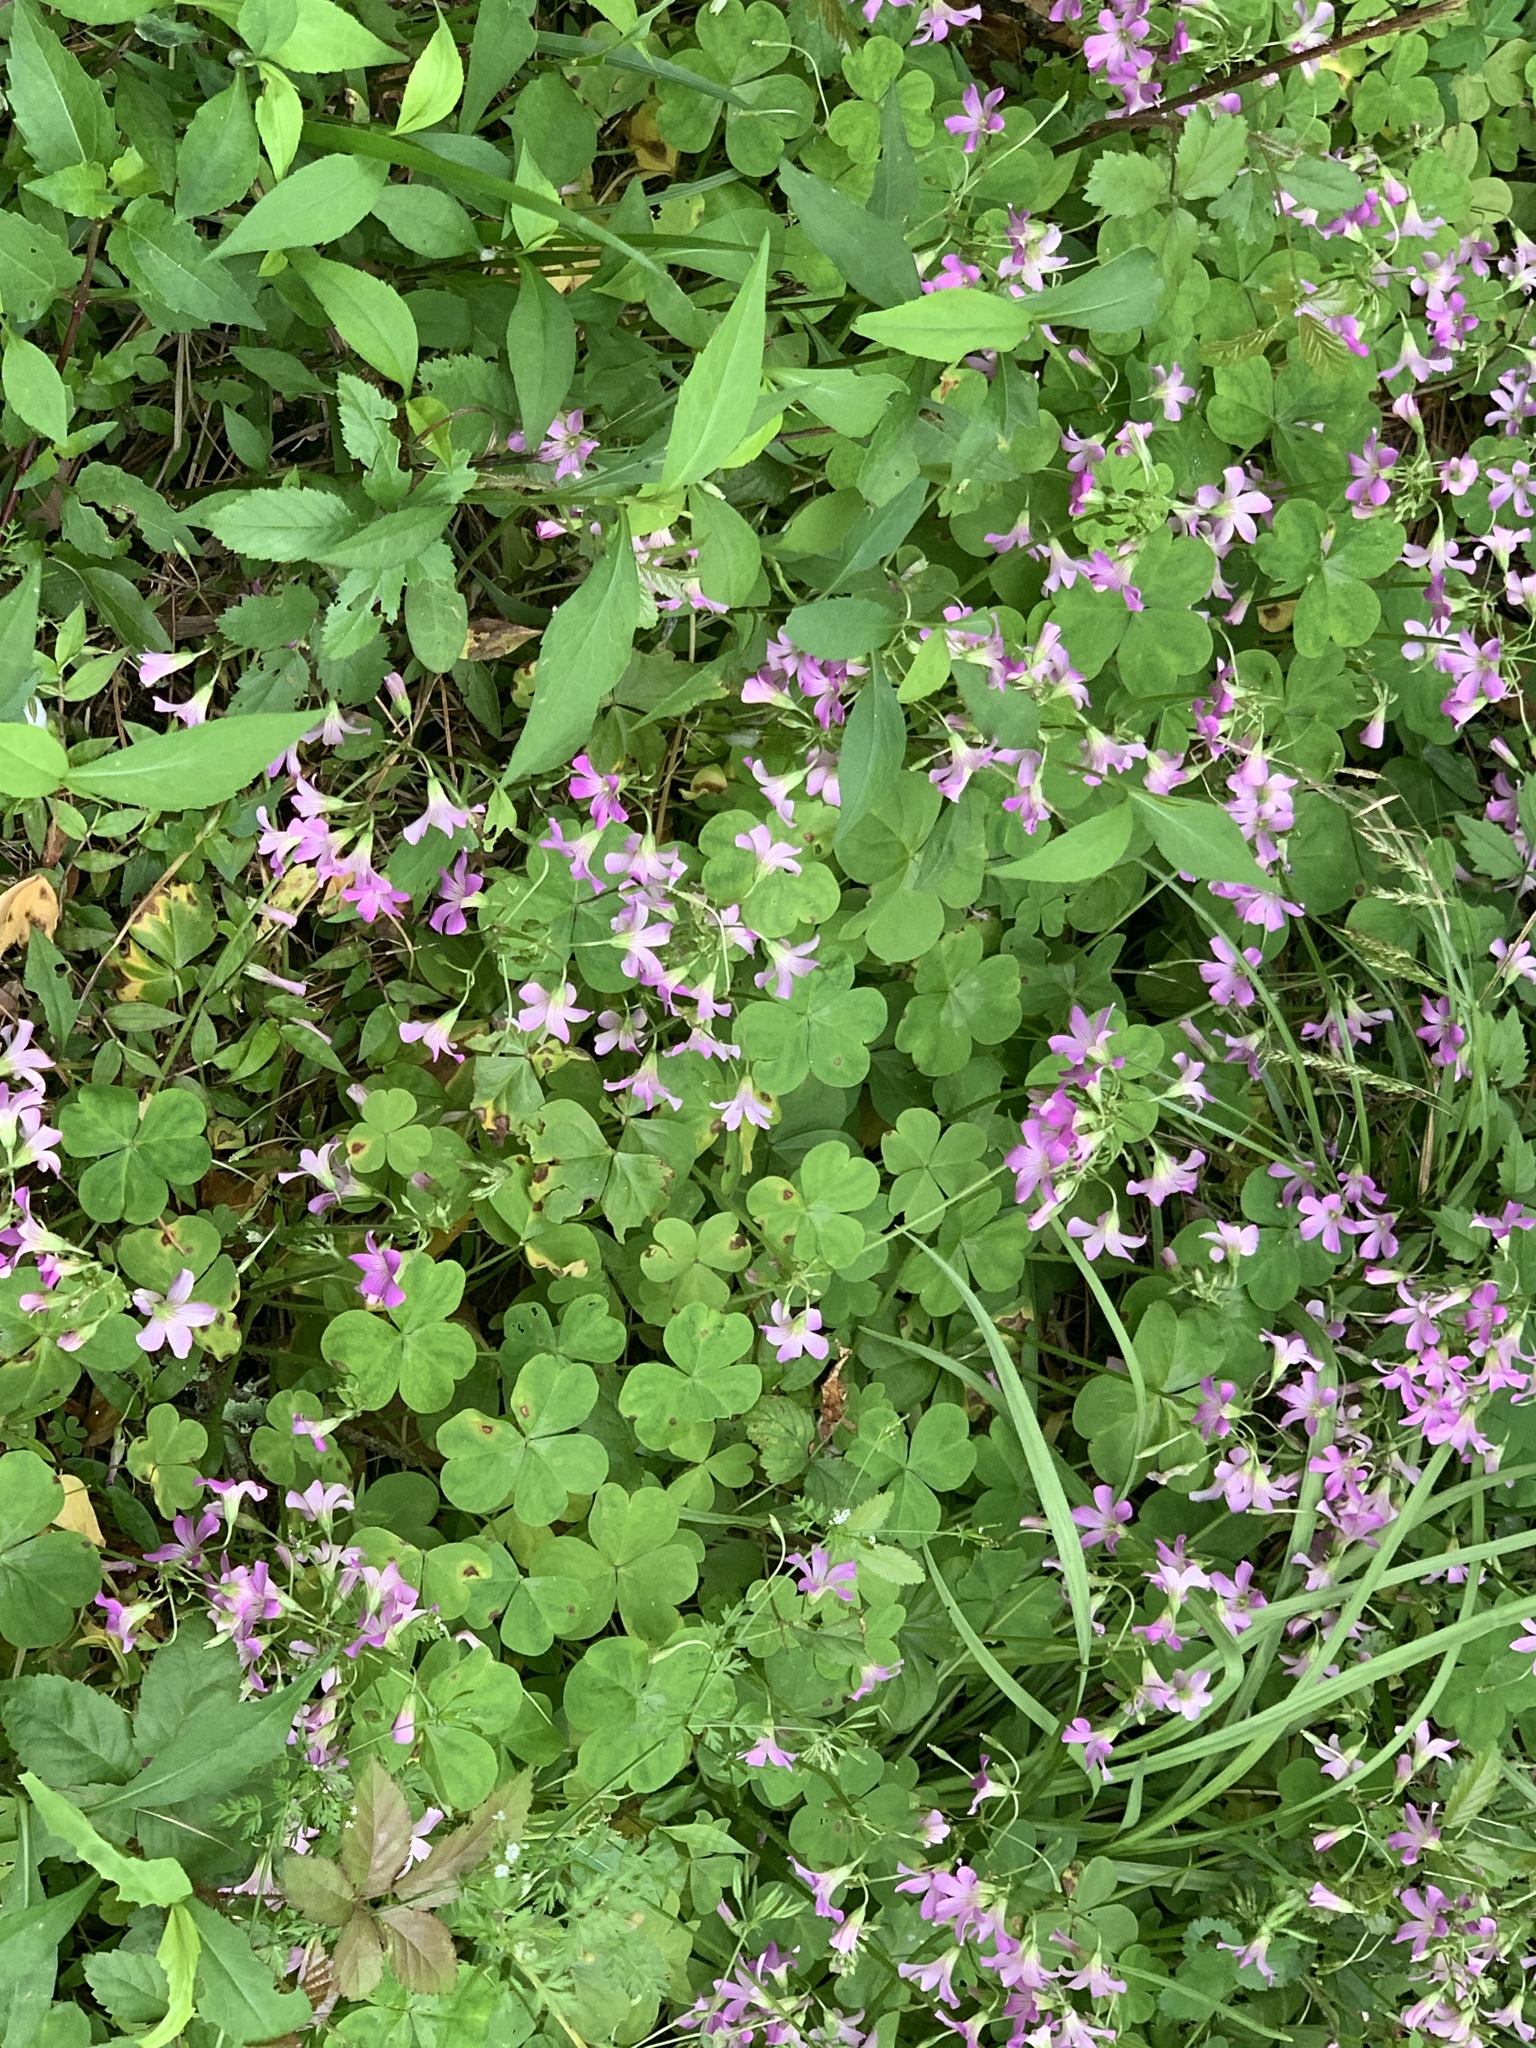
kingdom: Plantae
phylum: Tracheophyta
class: Magnoliopsida
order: Oxalidales
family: Oxalidaceae
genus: Oxalis
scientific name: Oxalis debilis
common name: Large-flowered pink-sorrel
